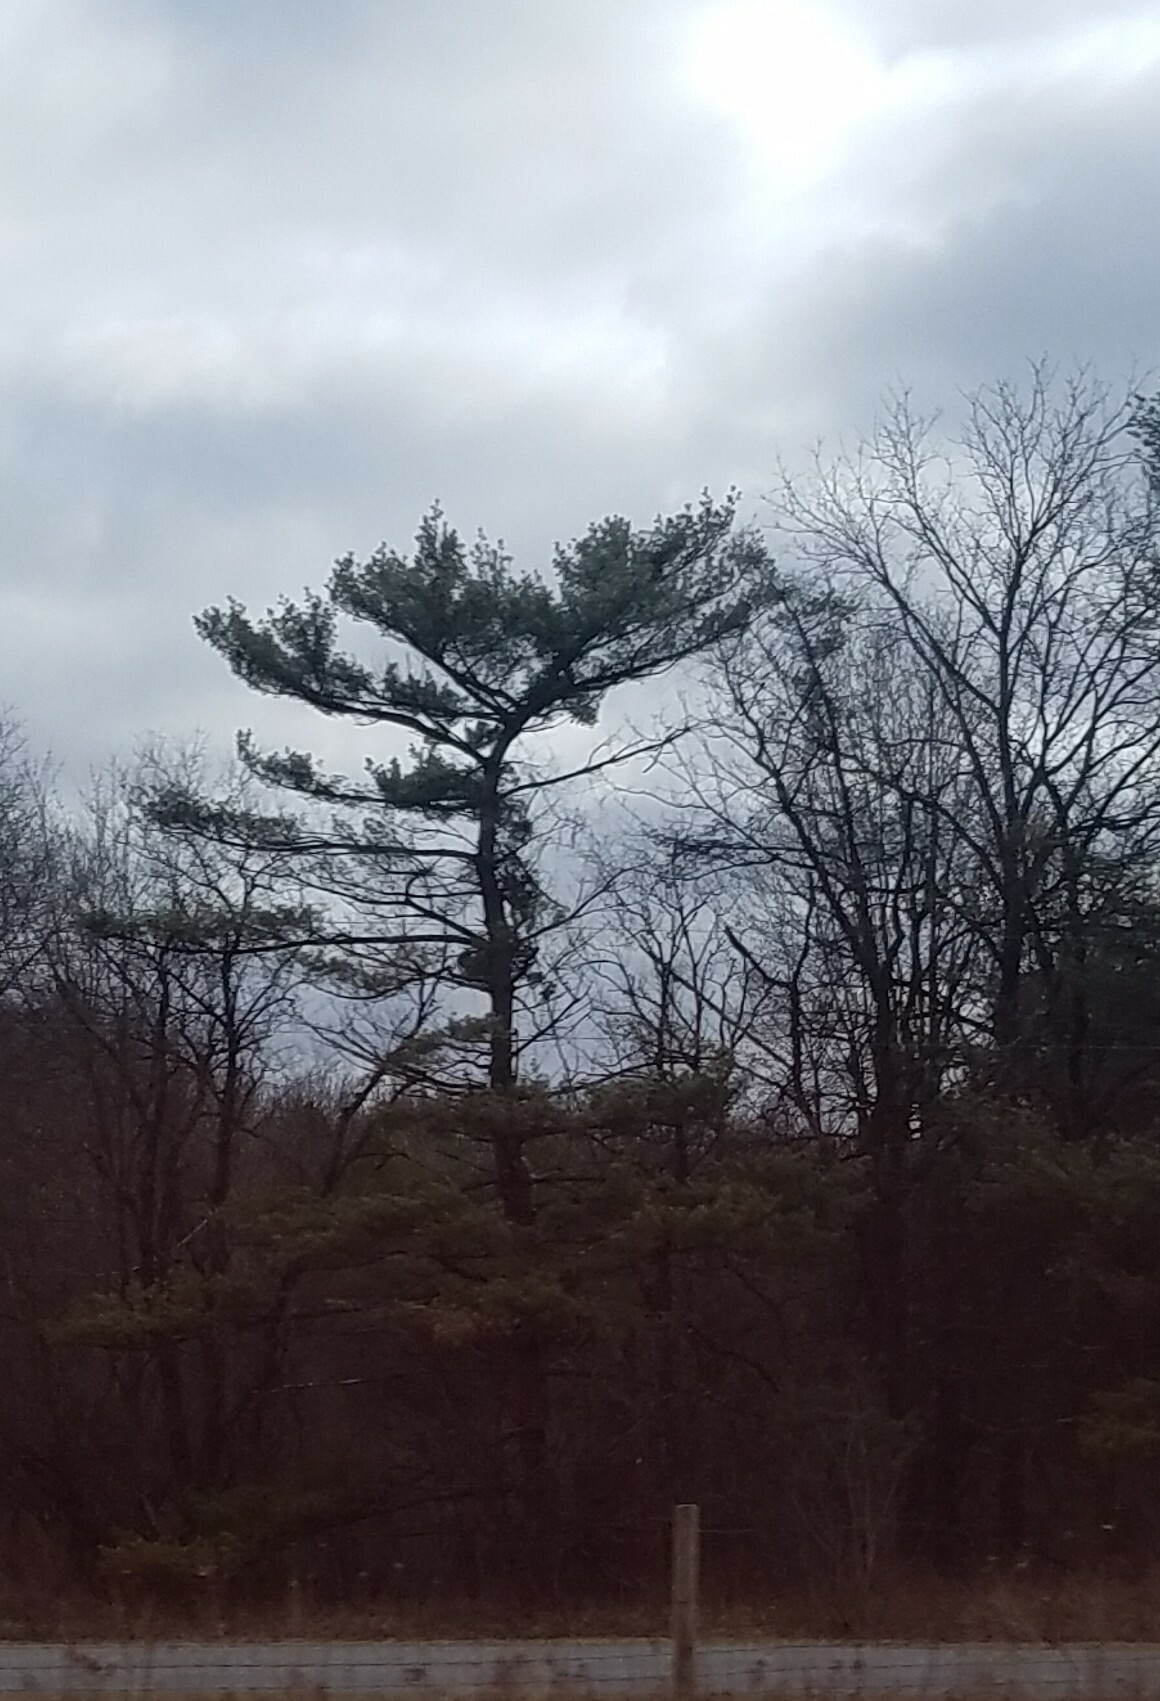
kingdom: Plantae
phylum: Tracheophyta
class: Pinopsida
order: Pinales
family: Pinaceae
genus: Pinus
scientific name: Pinus strobus
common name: Weymouth pine
